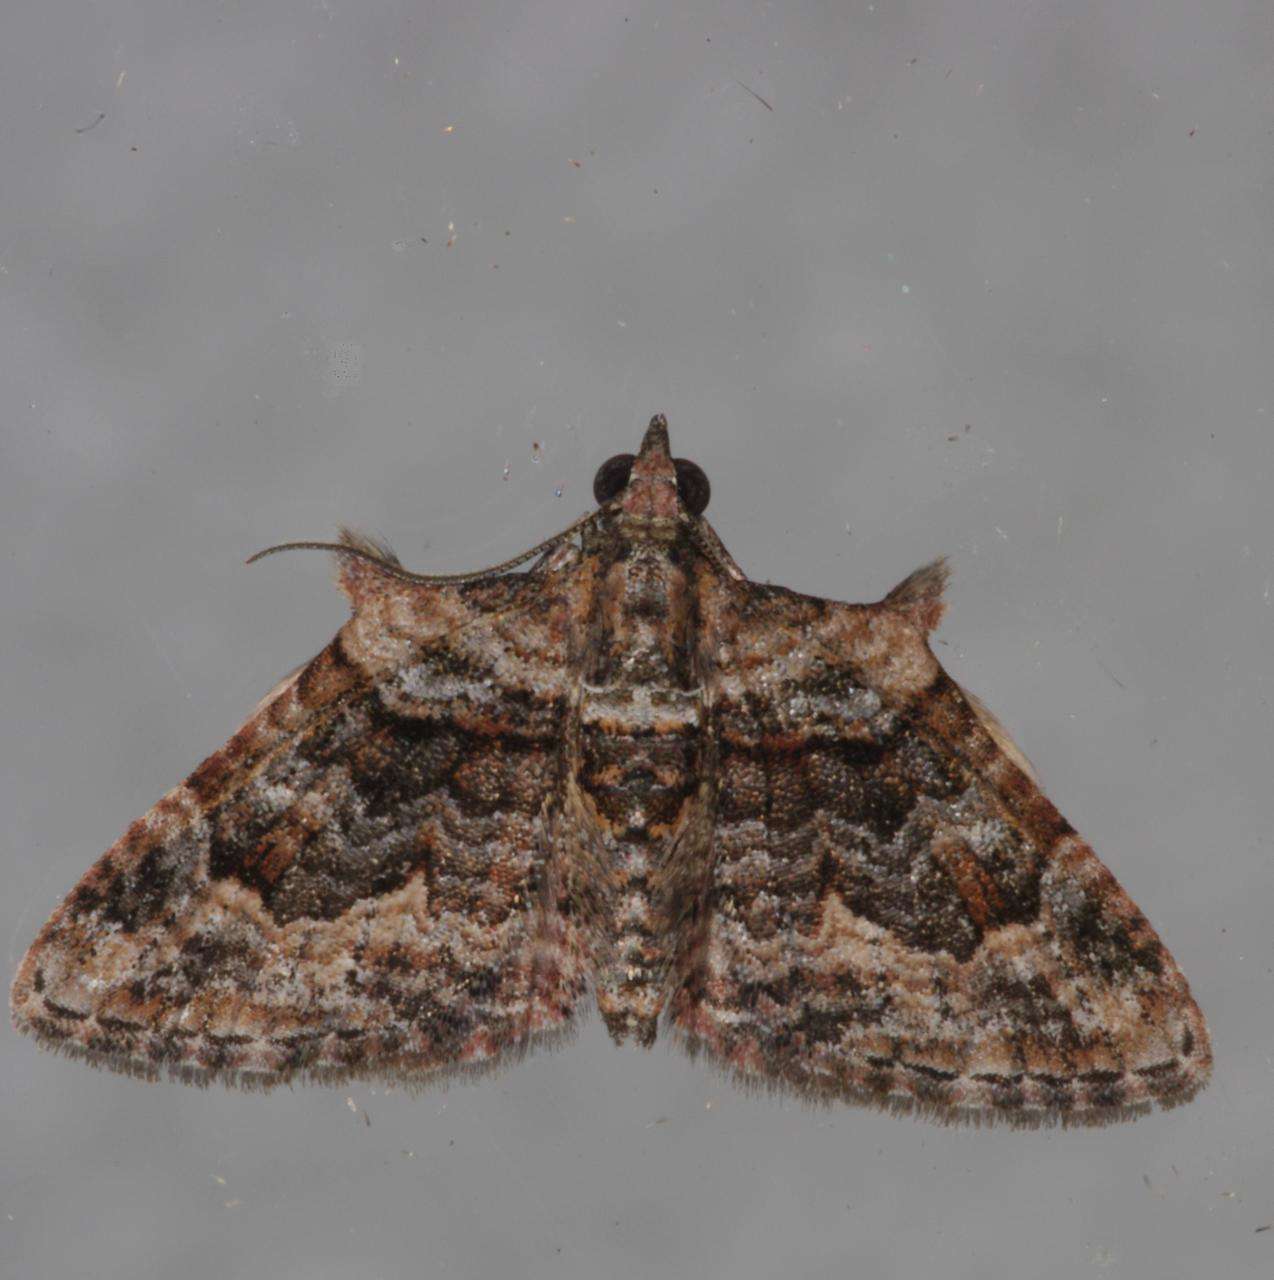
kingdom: Animalia
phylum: Arthropoda
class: Insecta
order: Lepidoptera
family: Geometridae
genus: Phrissogonus
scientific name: Phrissogonus laticostata
